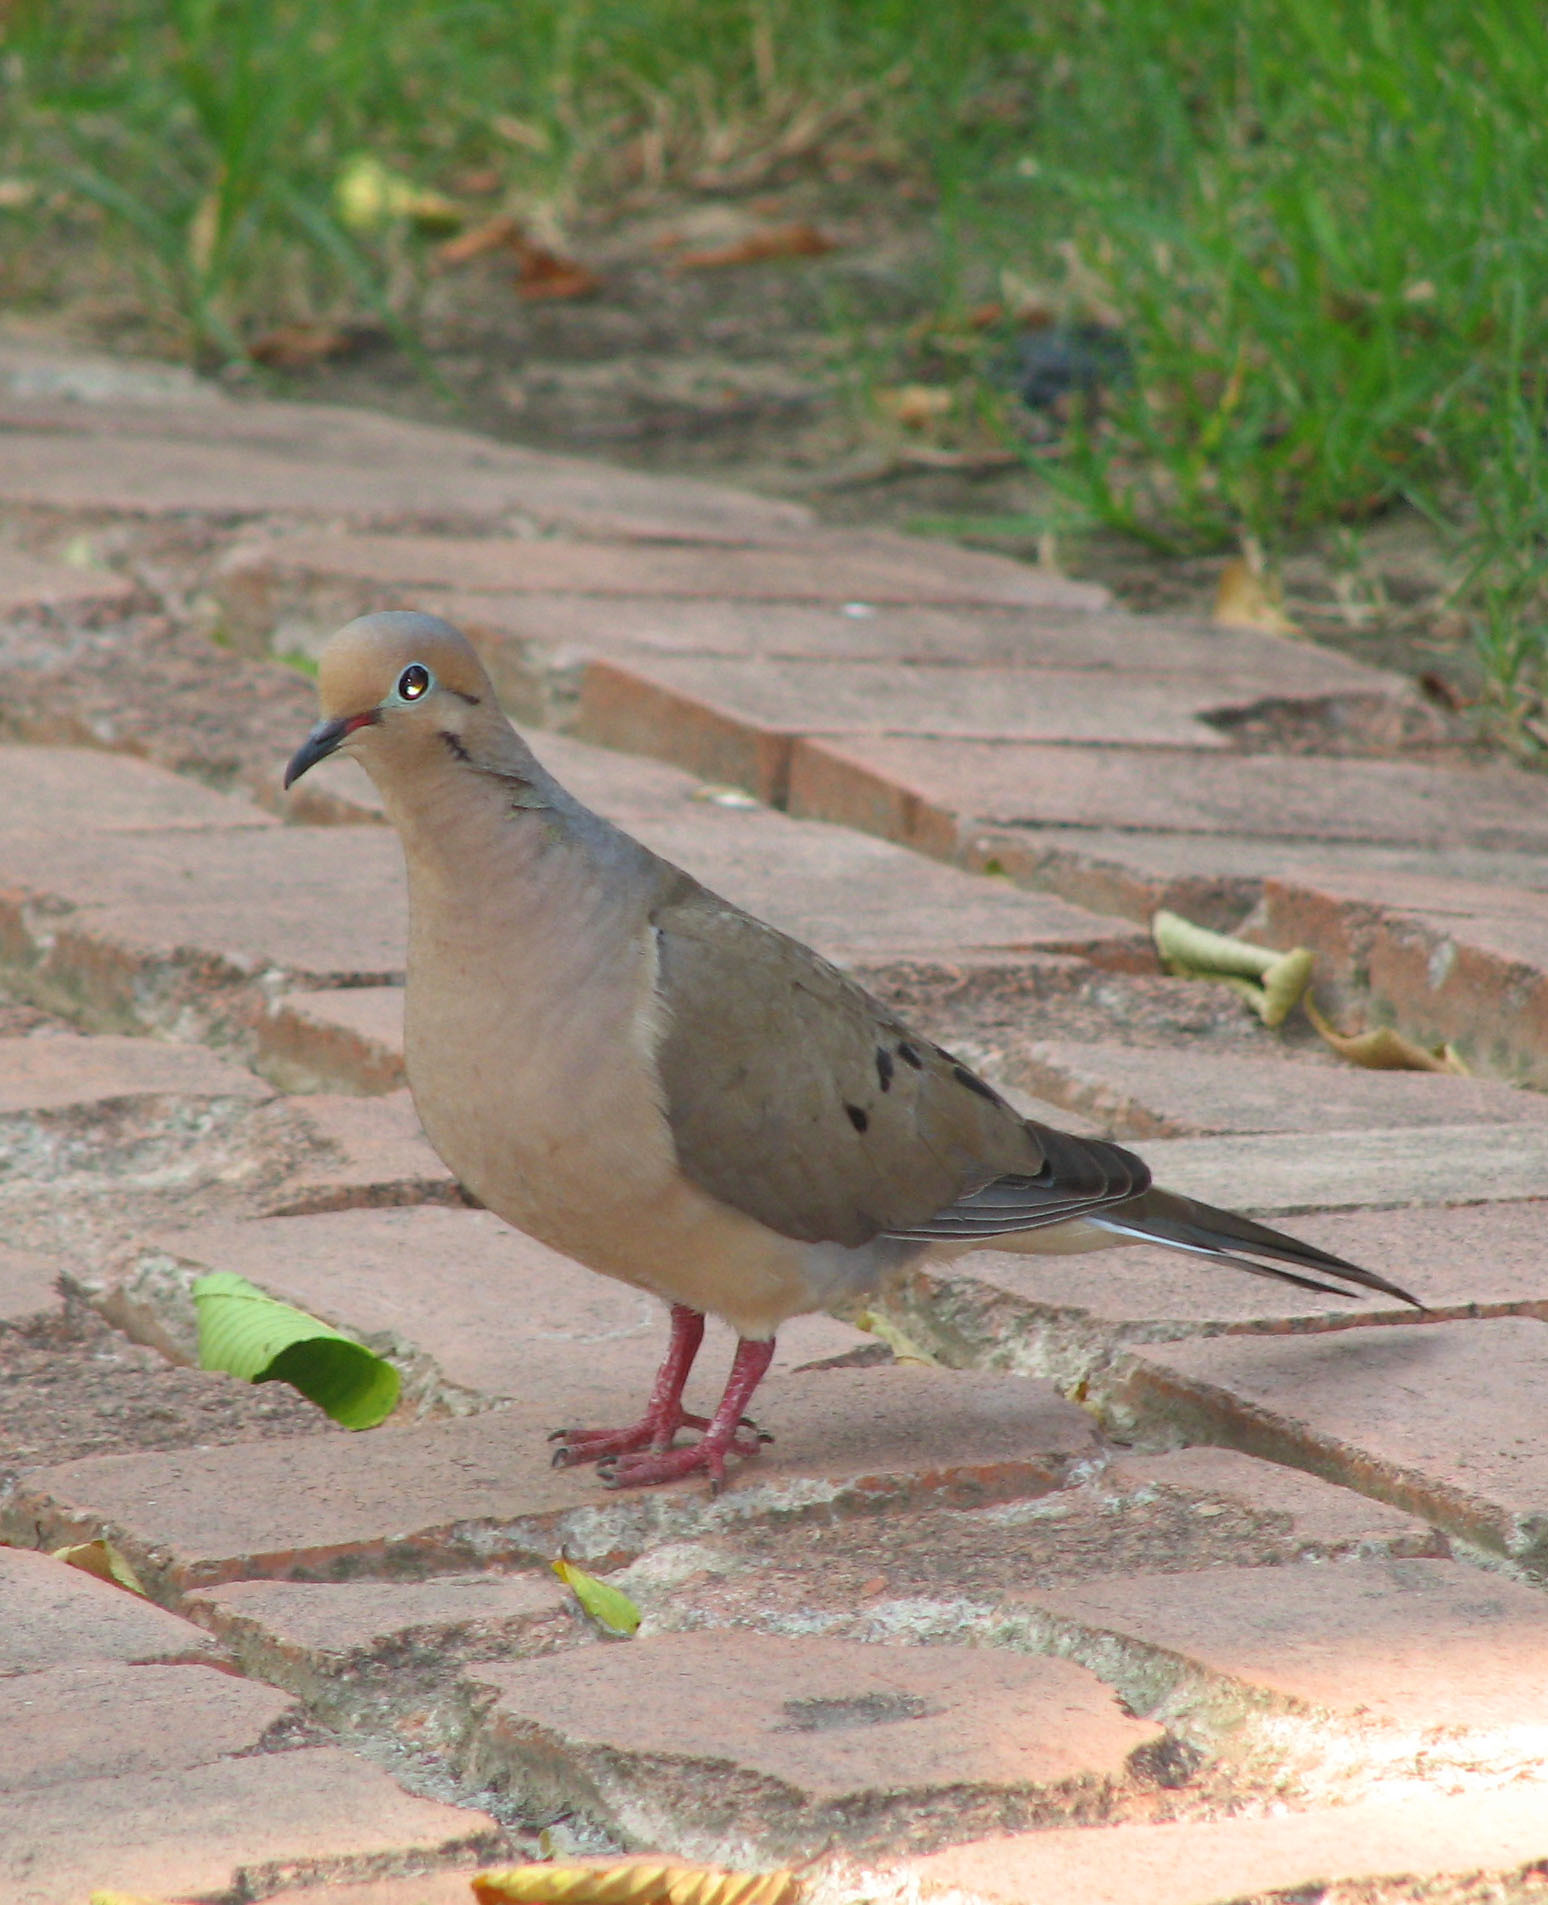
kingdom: Animalia
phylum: Chordata
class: Aves
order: Columbiformes
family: Columbidae
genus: Zenaida
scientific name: Zenaida macroura
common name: Mourning dove
